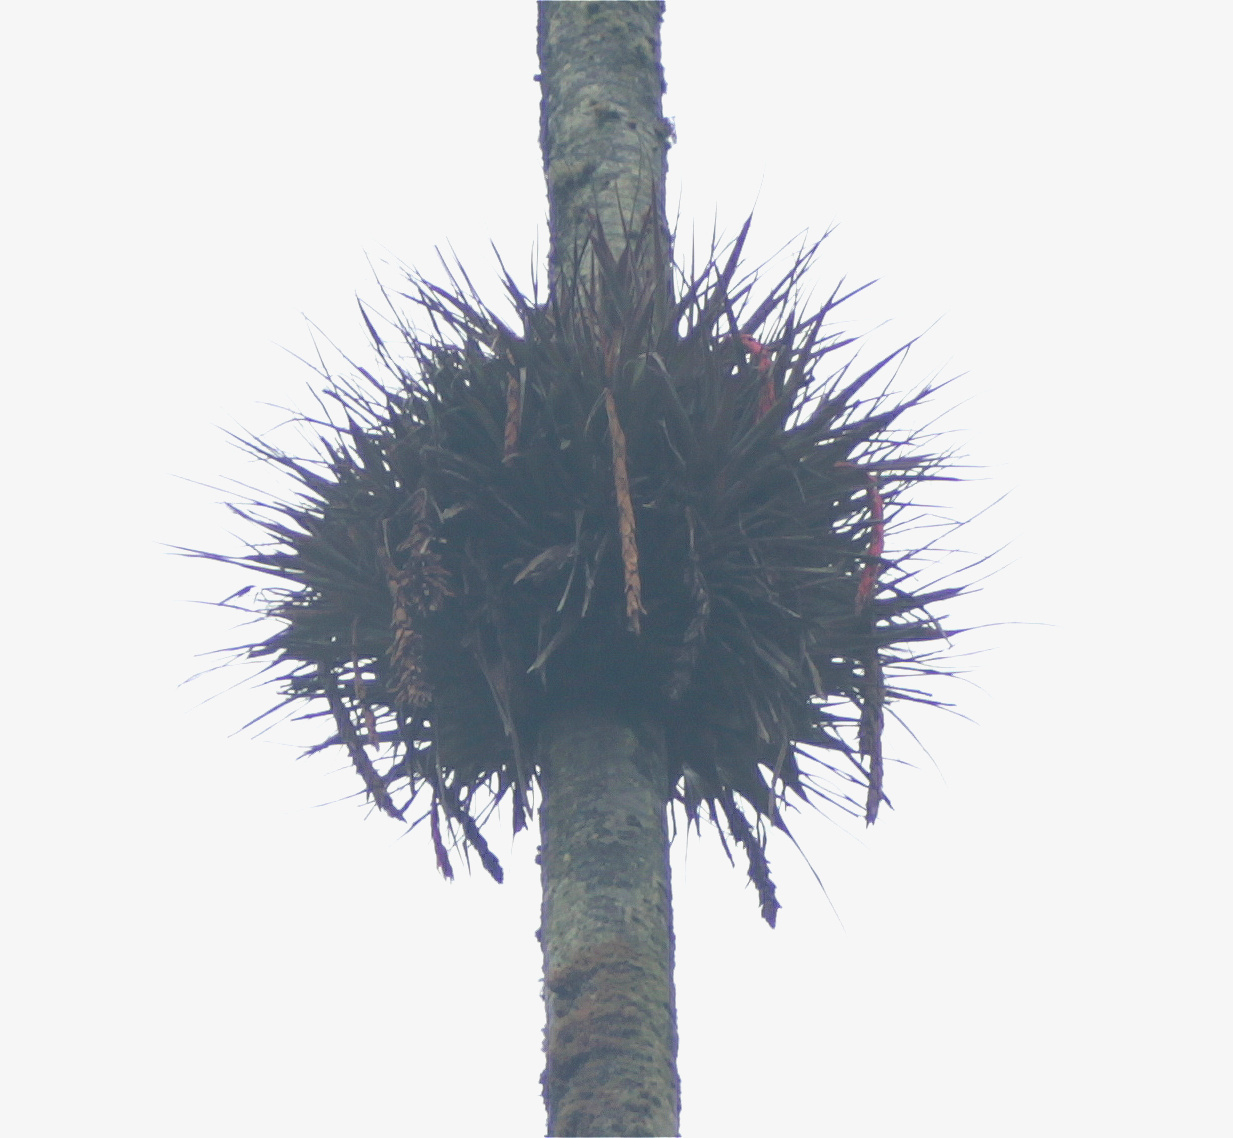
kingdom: Plantae
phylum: Tracheophyta
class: Liliopsida
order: Poales
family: Bromeliaceae
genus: Vriesea
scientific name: Vriesea tequendamae
